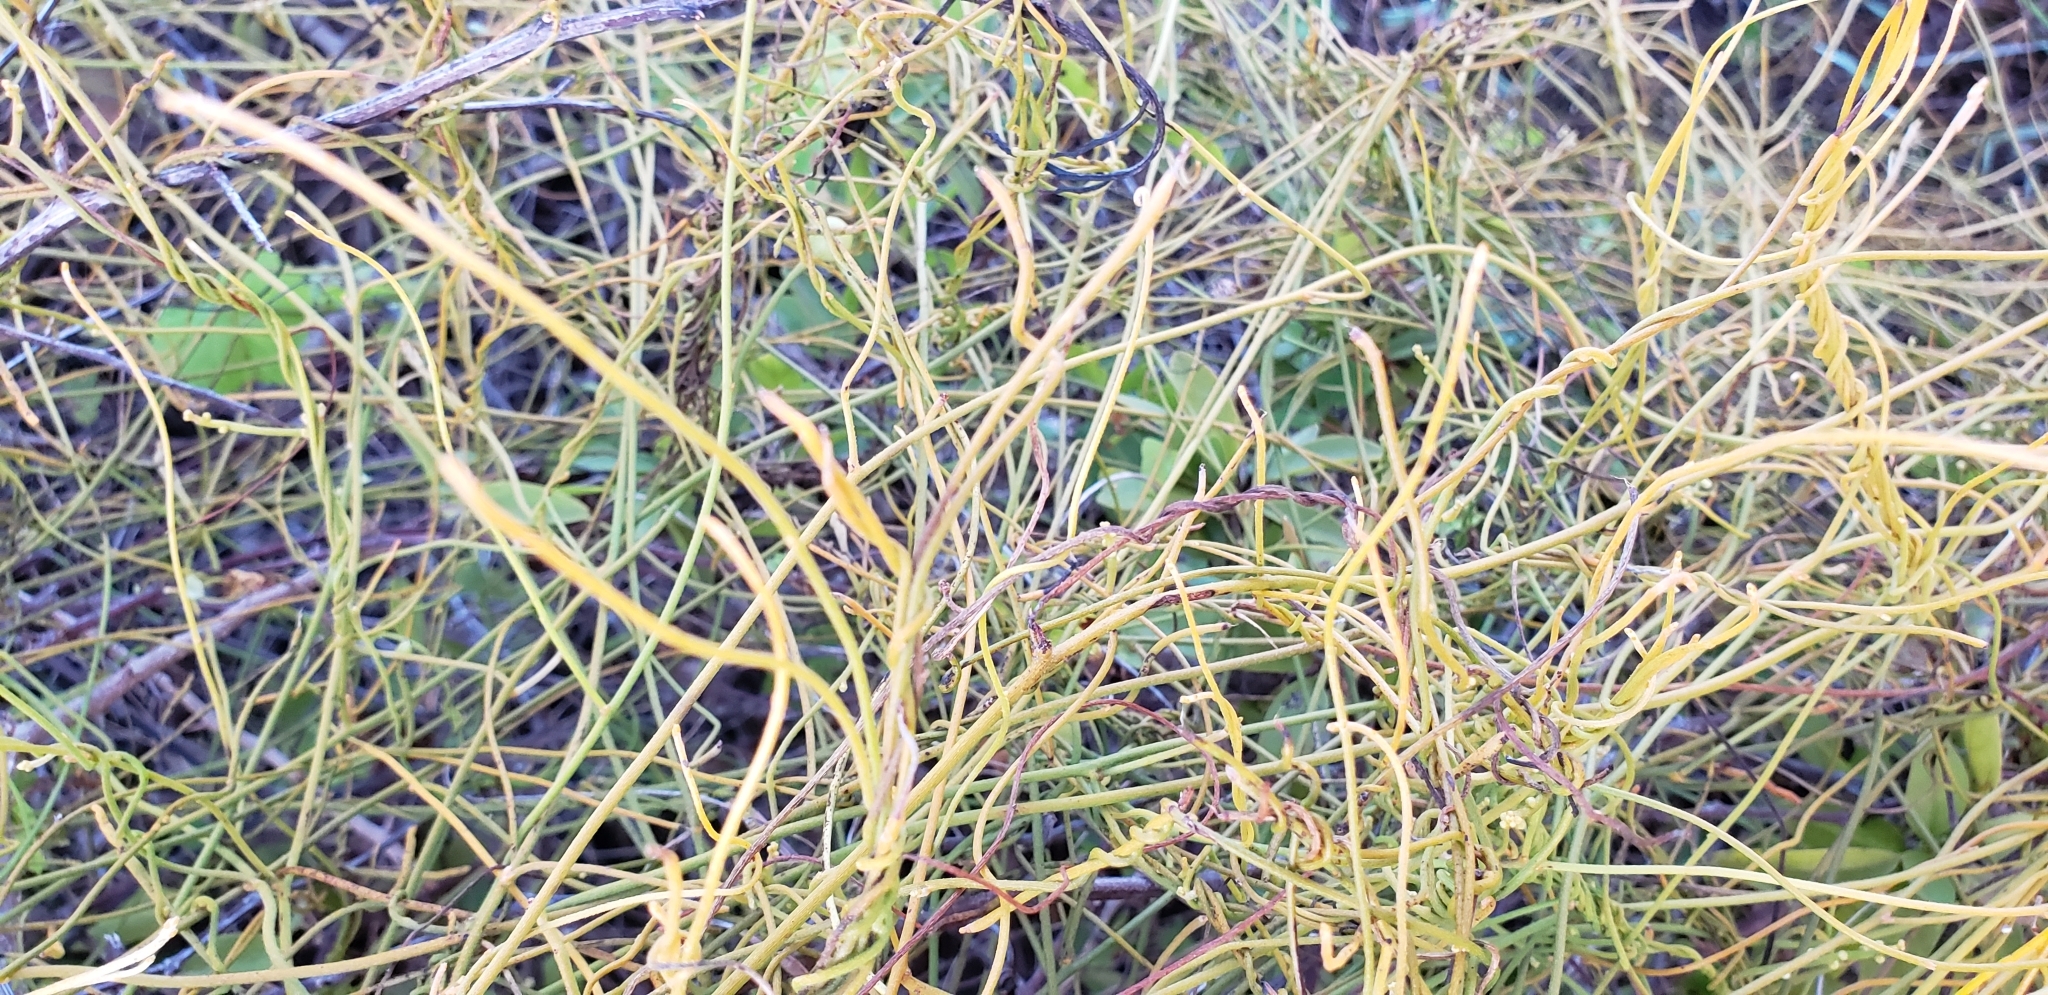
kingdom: Plantae
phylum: Tracheophyta
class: Magnoliopsida
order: Laurales
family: Lauraceae
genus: Cassytha
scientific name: Cassytha filiformis
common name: Dodder-laurel
